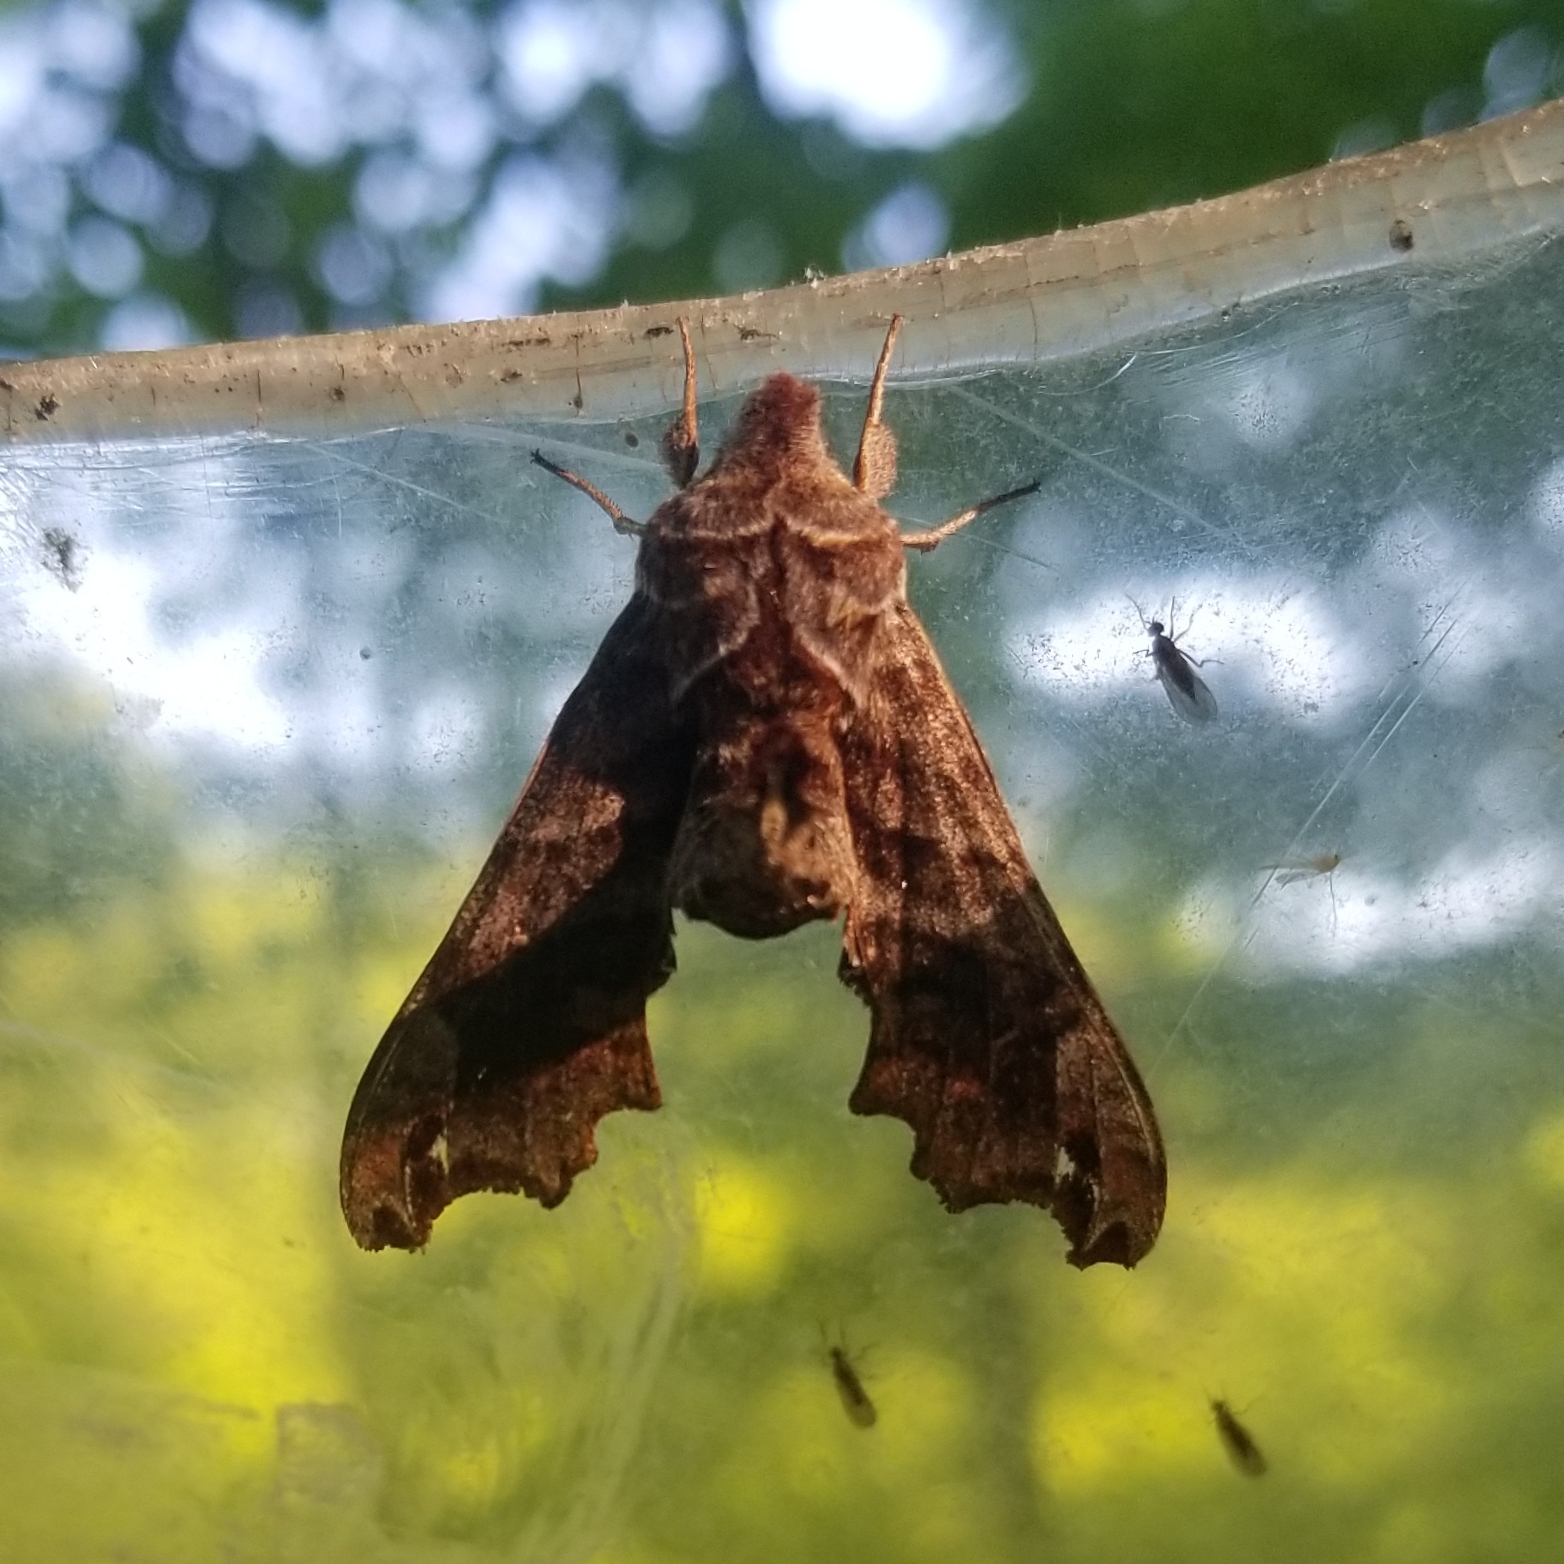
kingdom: Animalia
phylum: Arthropoda
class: Insecta
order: Lepidoptera
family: Sphingidae
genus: Deidamia
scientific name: Deidamia inscriptum
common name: Lettered sphinx
